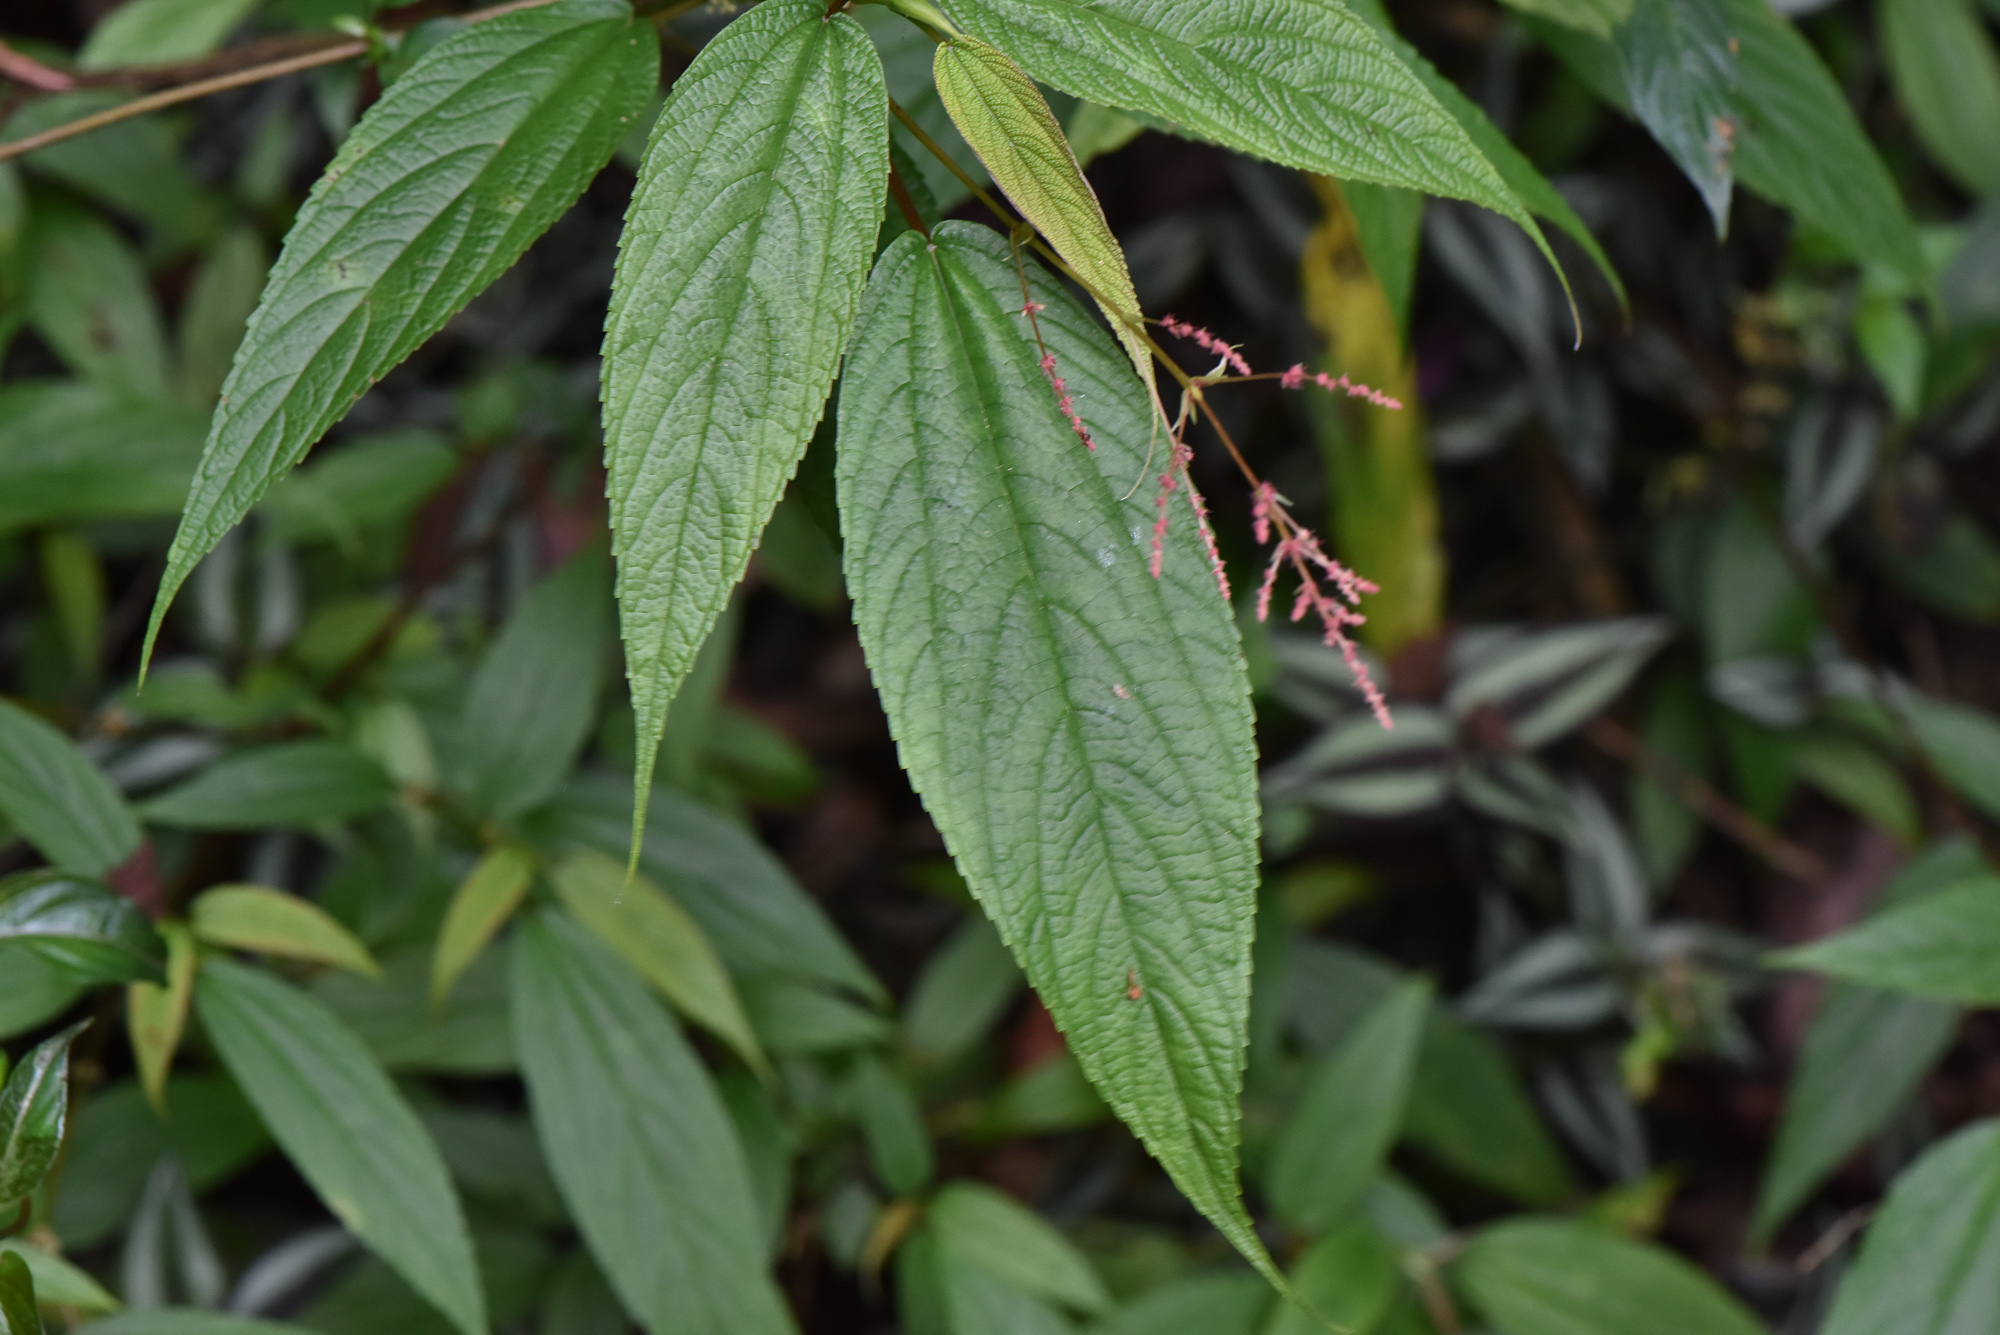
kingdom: Plantae
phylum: Tracheophyta
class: Magnoliopsida
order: Rosales
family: Urticaceae
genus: Boehmeria
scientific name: Boehmeria zollingeriana
